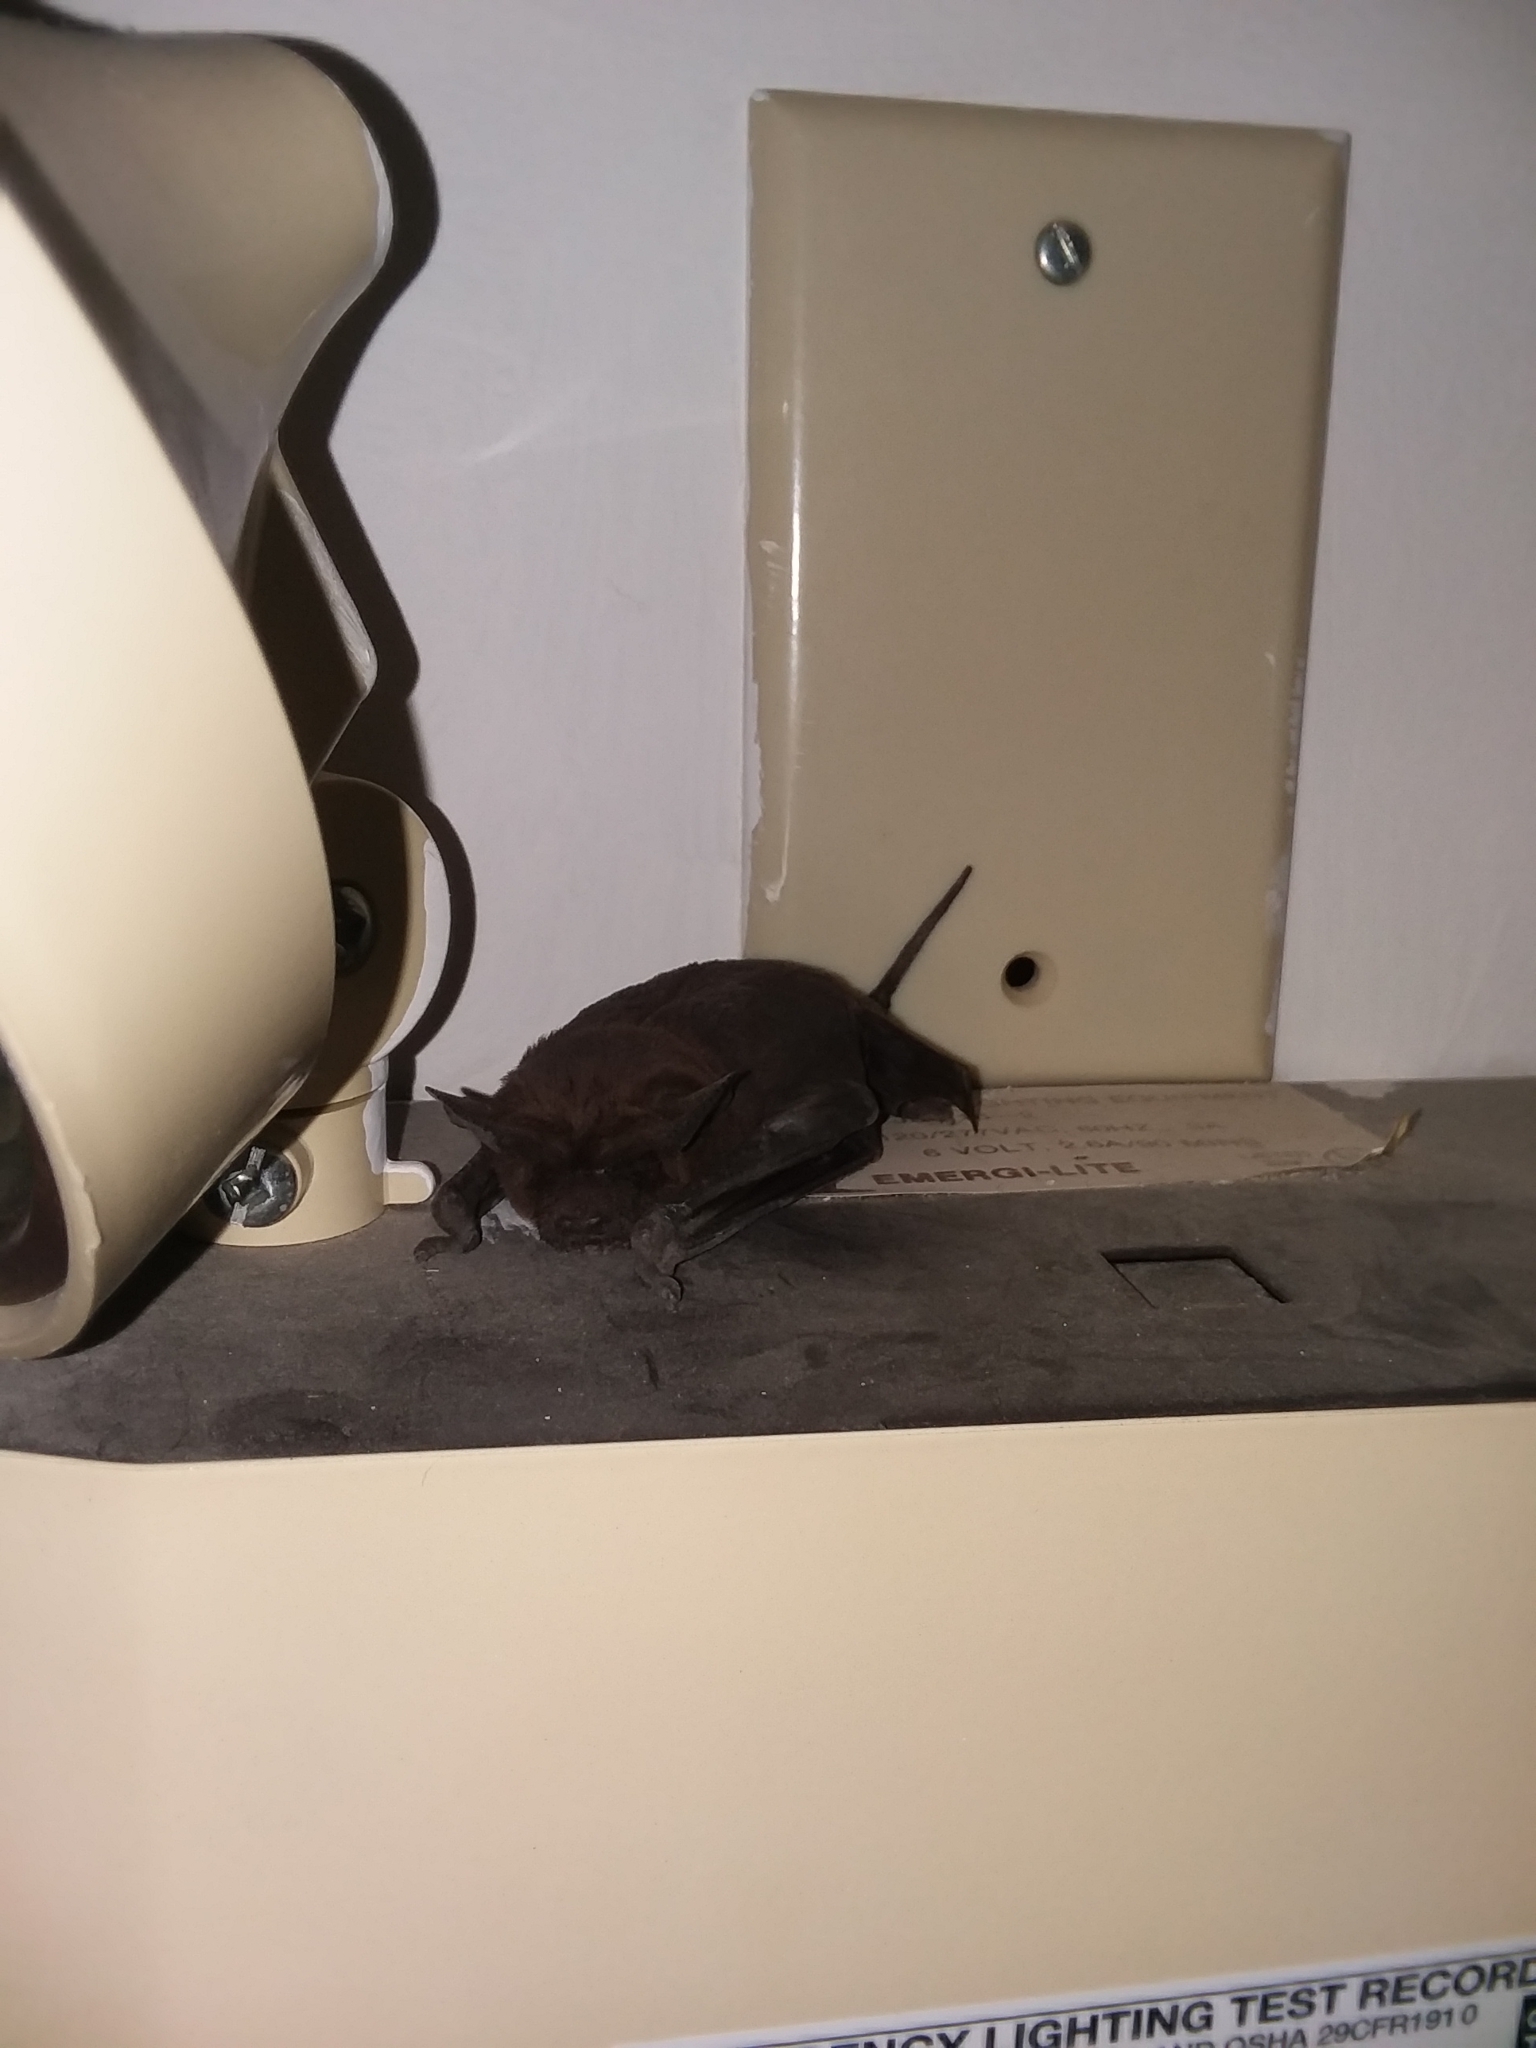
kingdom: Animalia
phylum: Chordata
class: Mammalia
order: Chiroptera
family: Molossidae
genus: Tadarida
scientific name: Tadarida brasiliensis
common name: Mexican free-tailed bat
